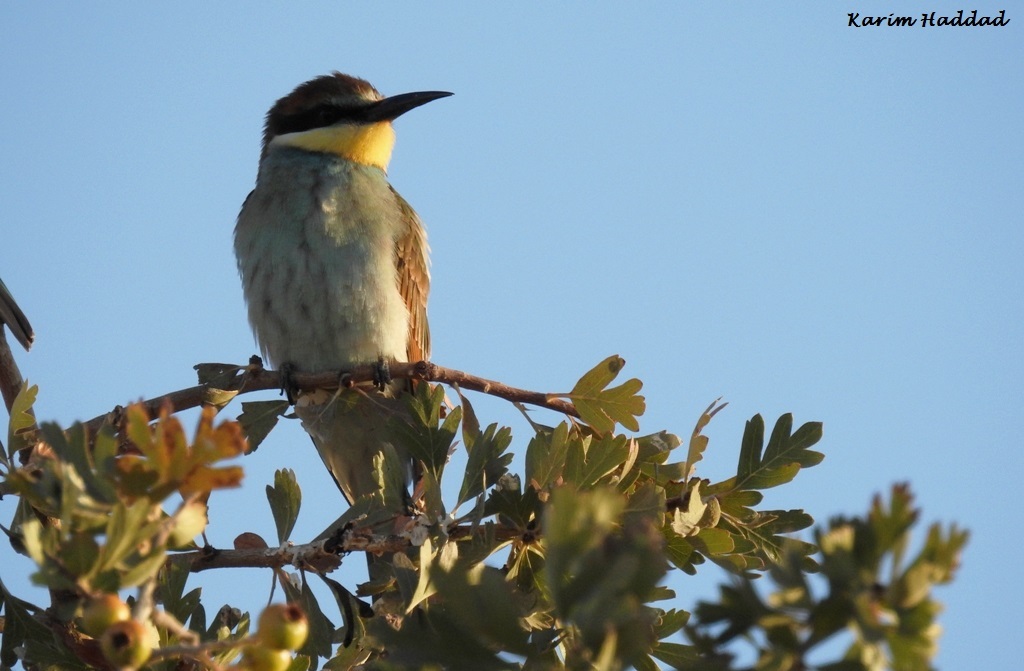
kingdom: Animalia
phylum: Chordata
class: Aves
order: Coraciiformes
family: Meropidae
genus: Merops
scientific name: Merops apiaster
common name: European bee-eater
